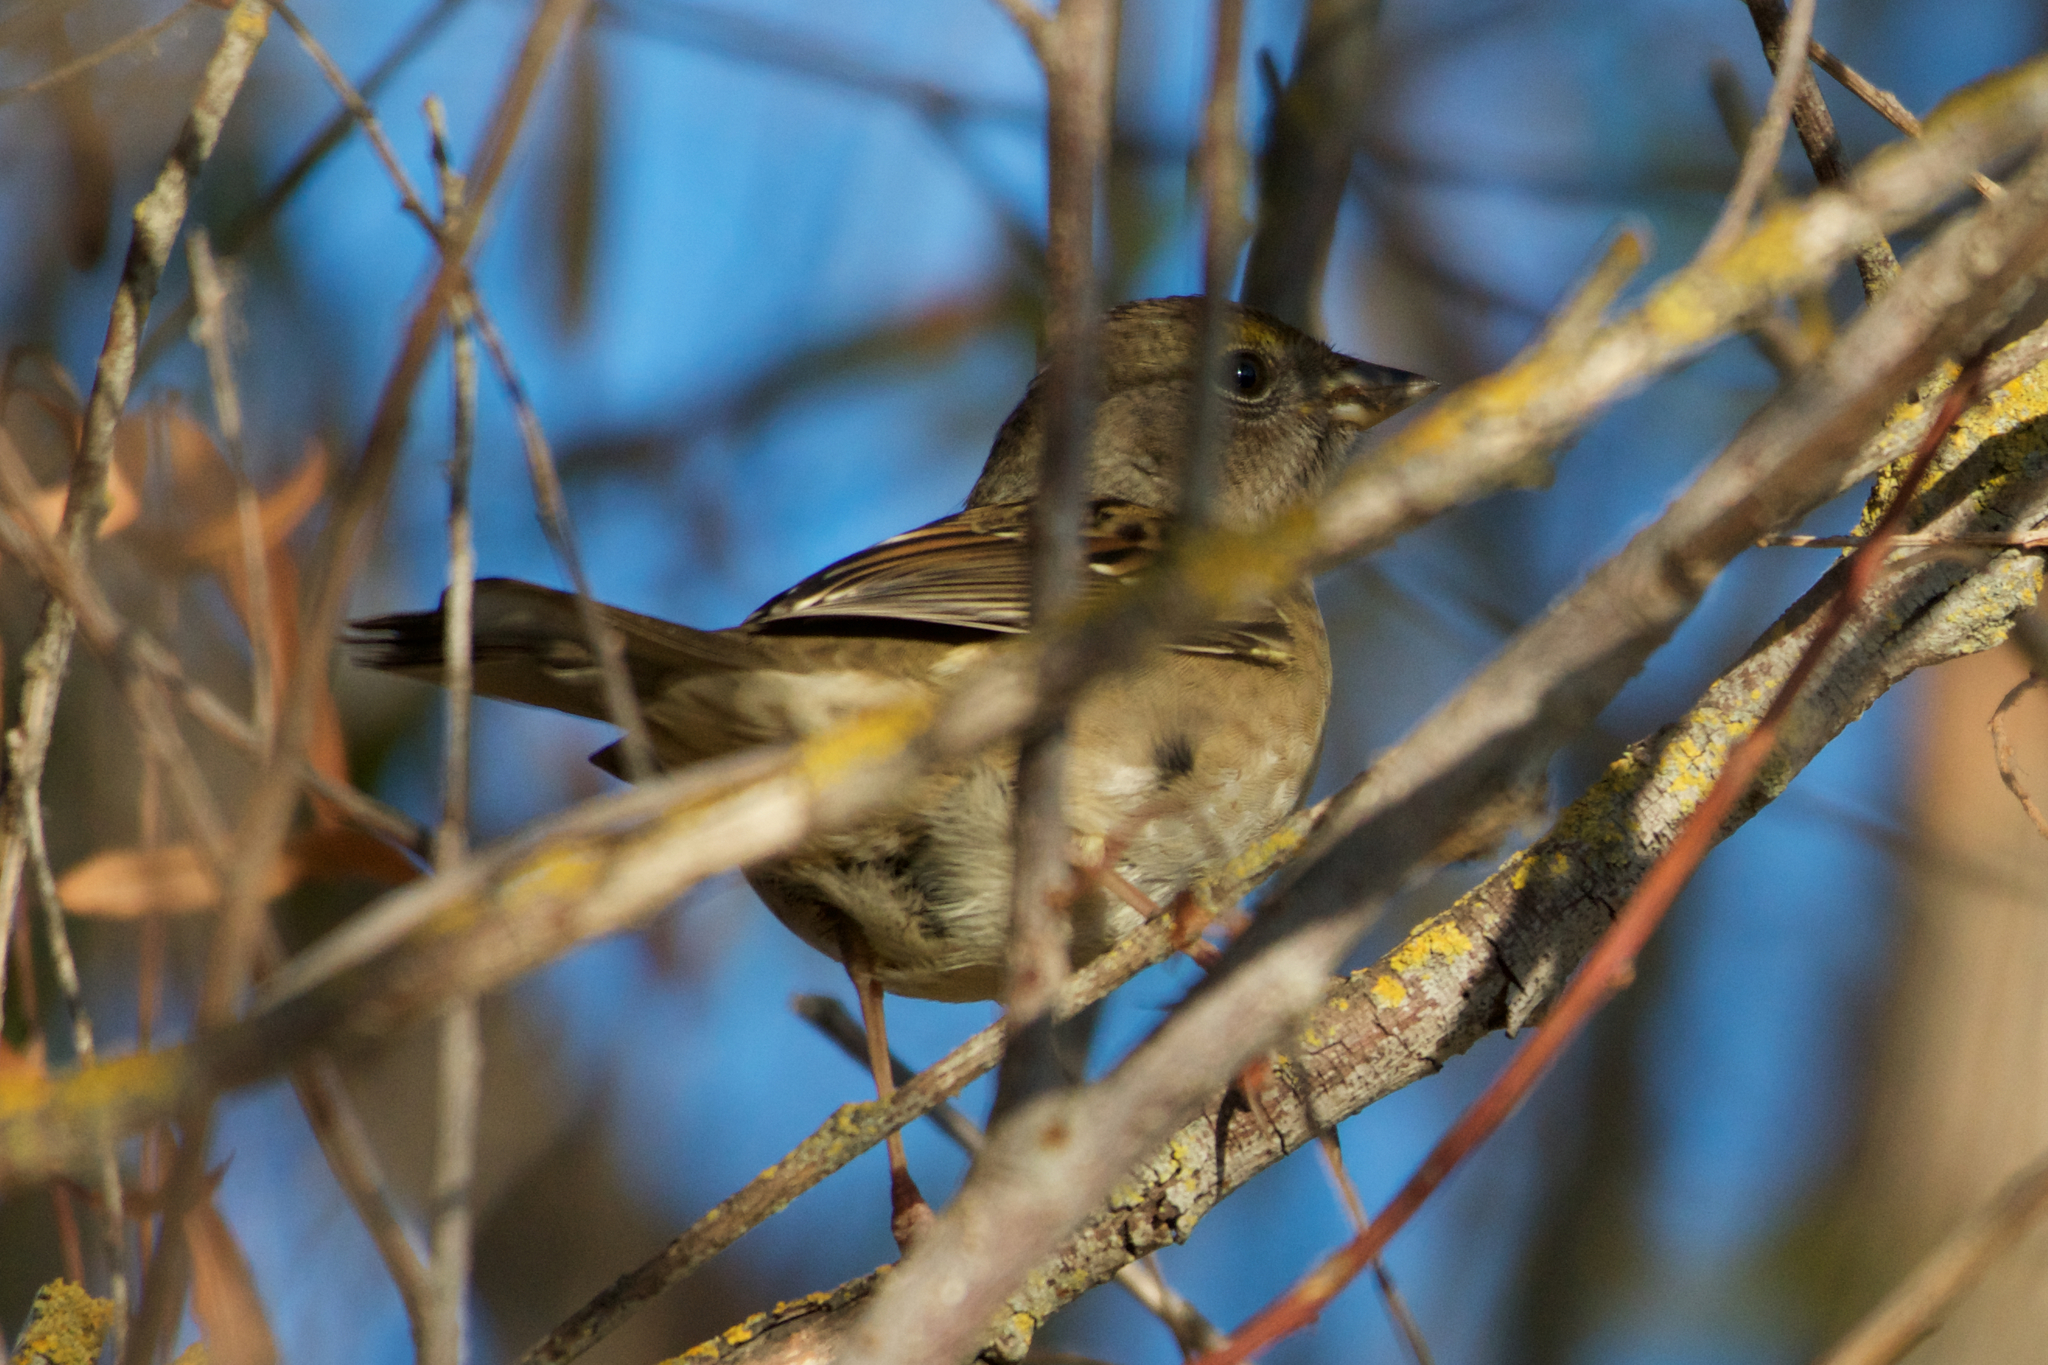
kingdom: Animalia
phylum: Chordata
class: Aves
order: Passeriformes
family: Passerellidae
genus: Zonotrichia
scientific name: Zonotrichia atricapilla
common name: Golden-crowned sparrow
